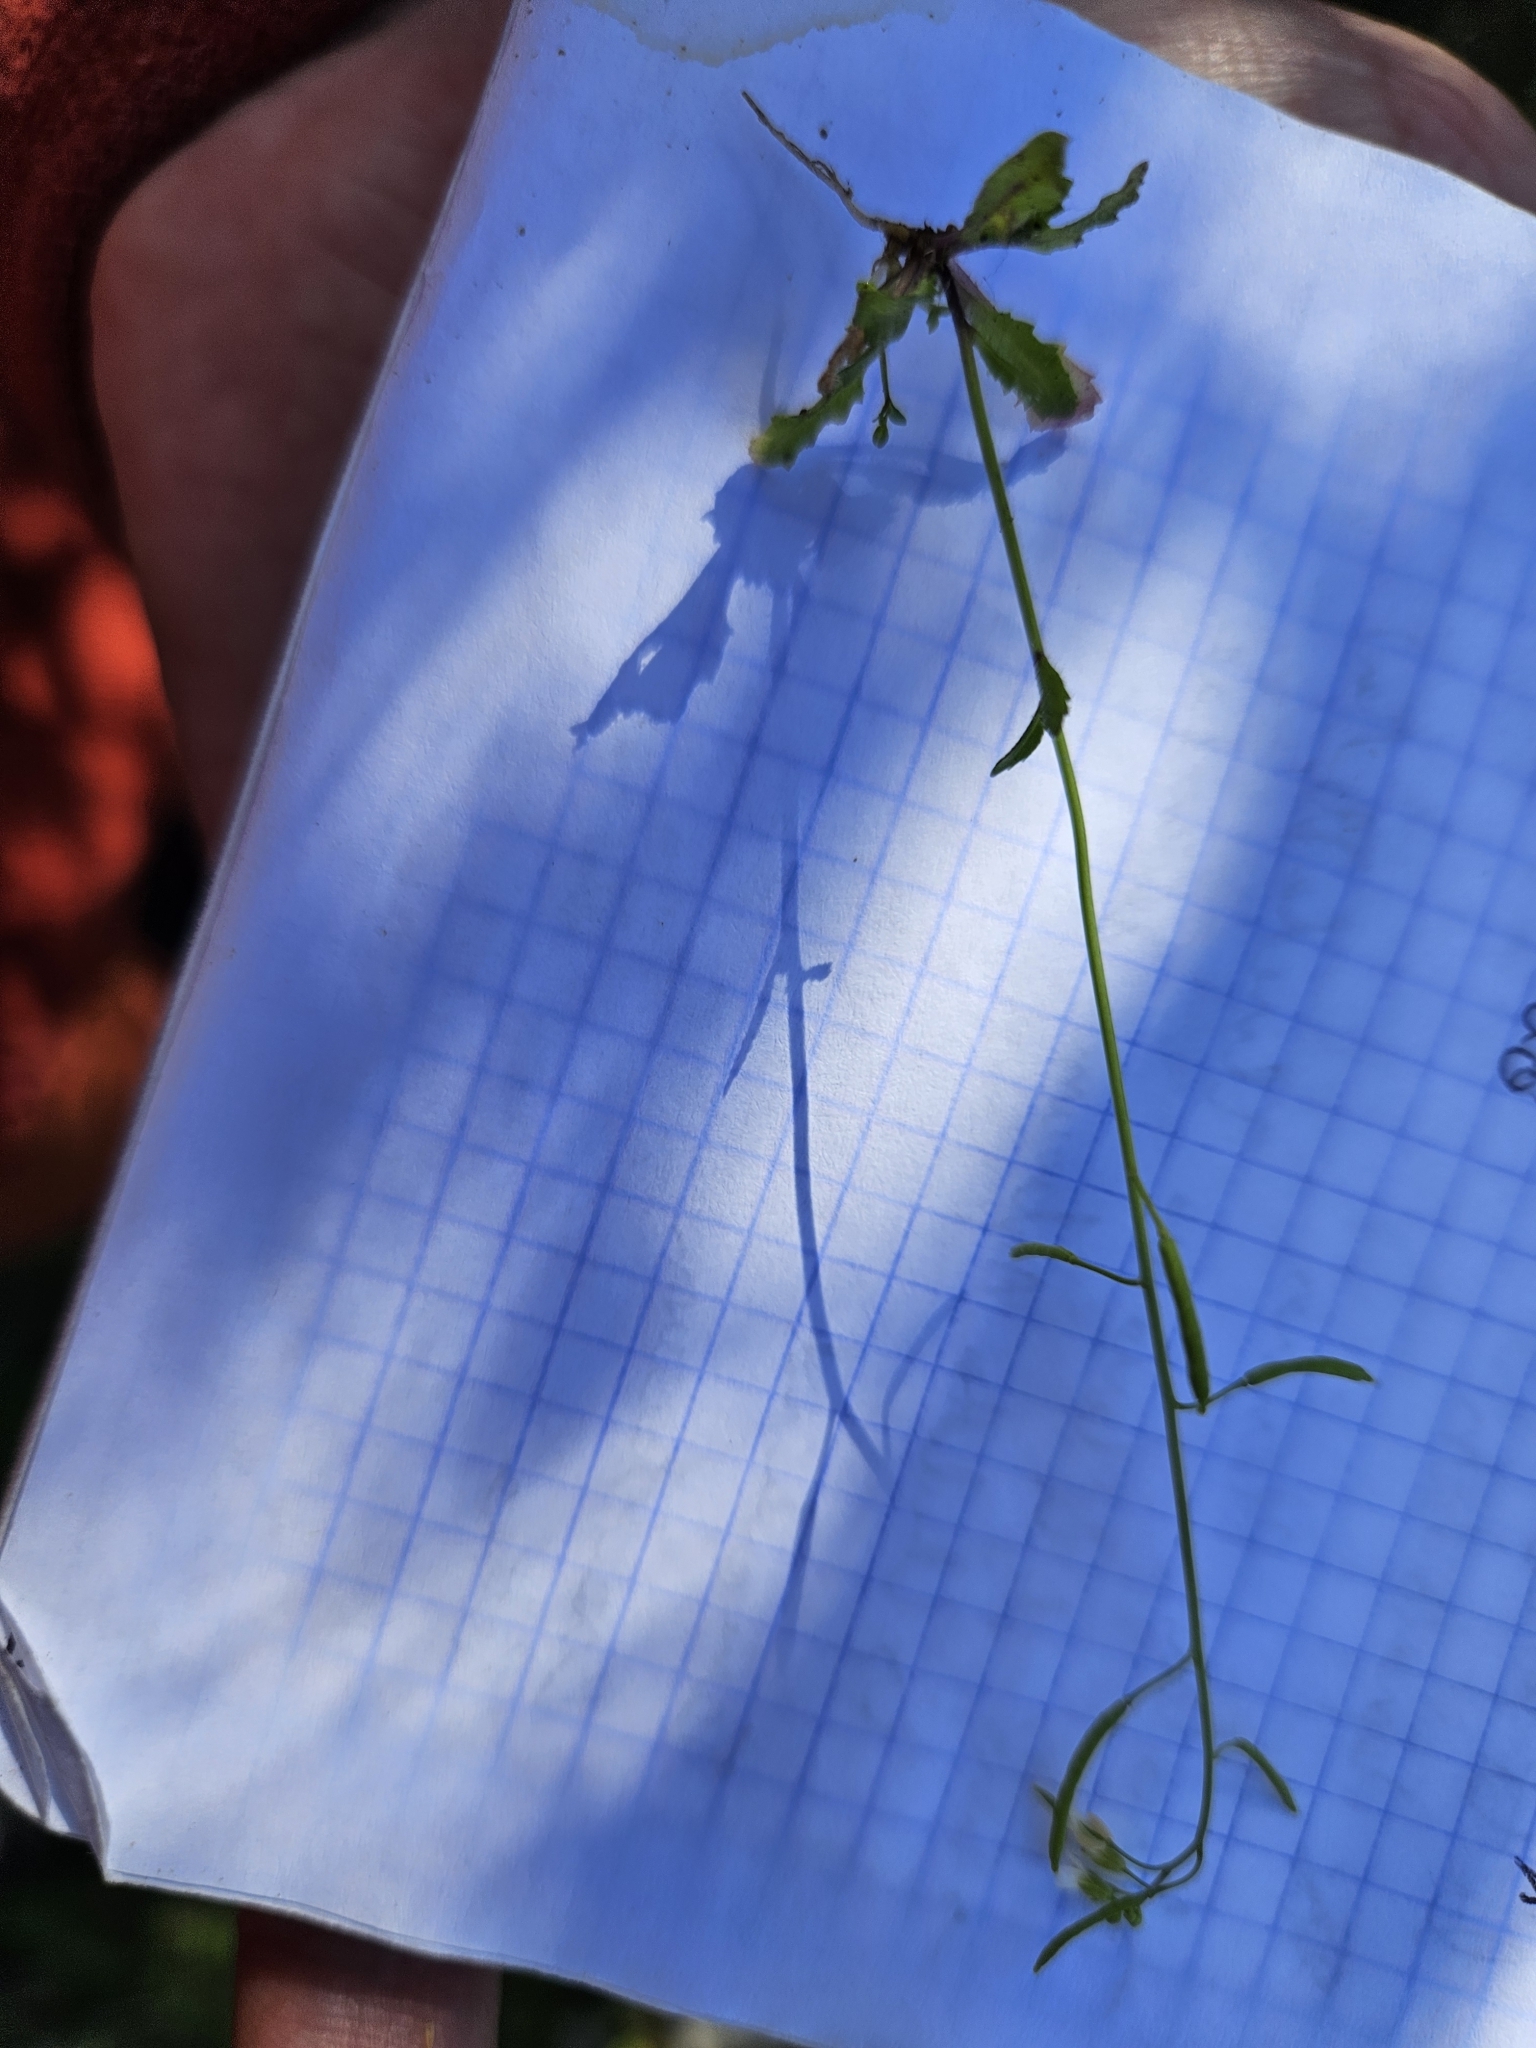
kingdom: Plantae
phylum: Tracheophyta
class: Magnoliopsida
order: Brassicales
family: Brassicaceae
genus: Arabidopsis
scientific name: Arabidopsis thaliana
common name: Thale cress
